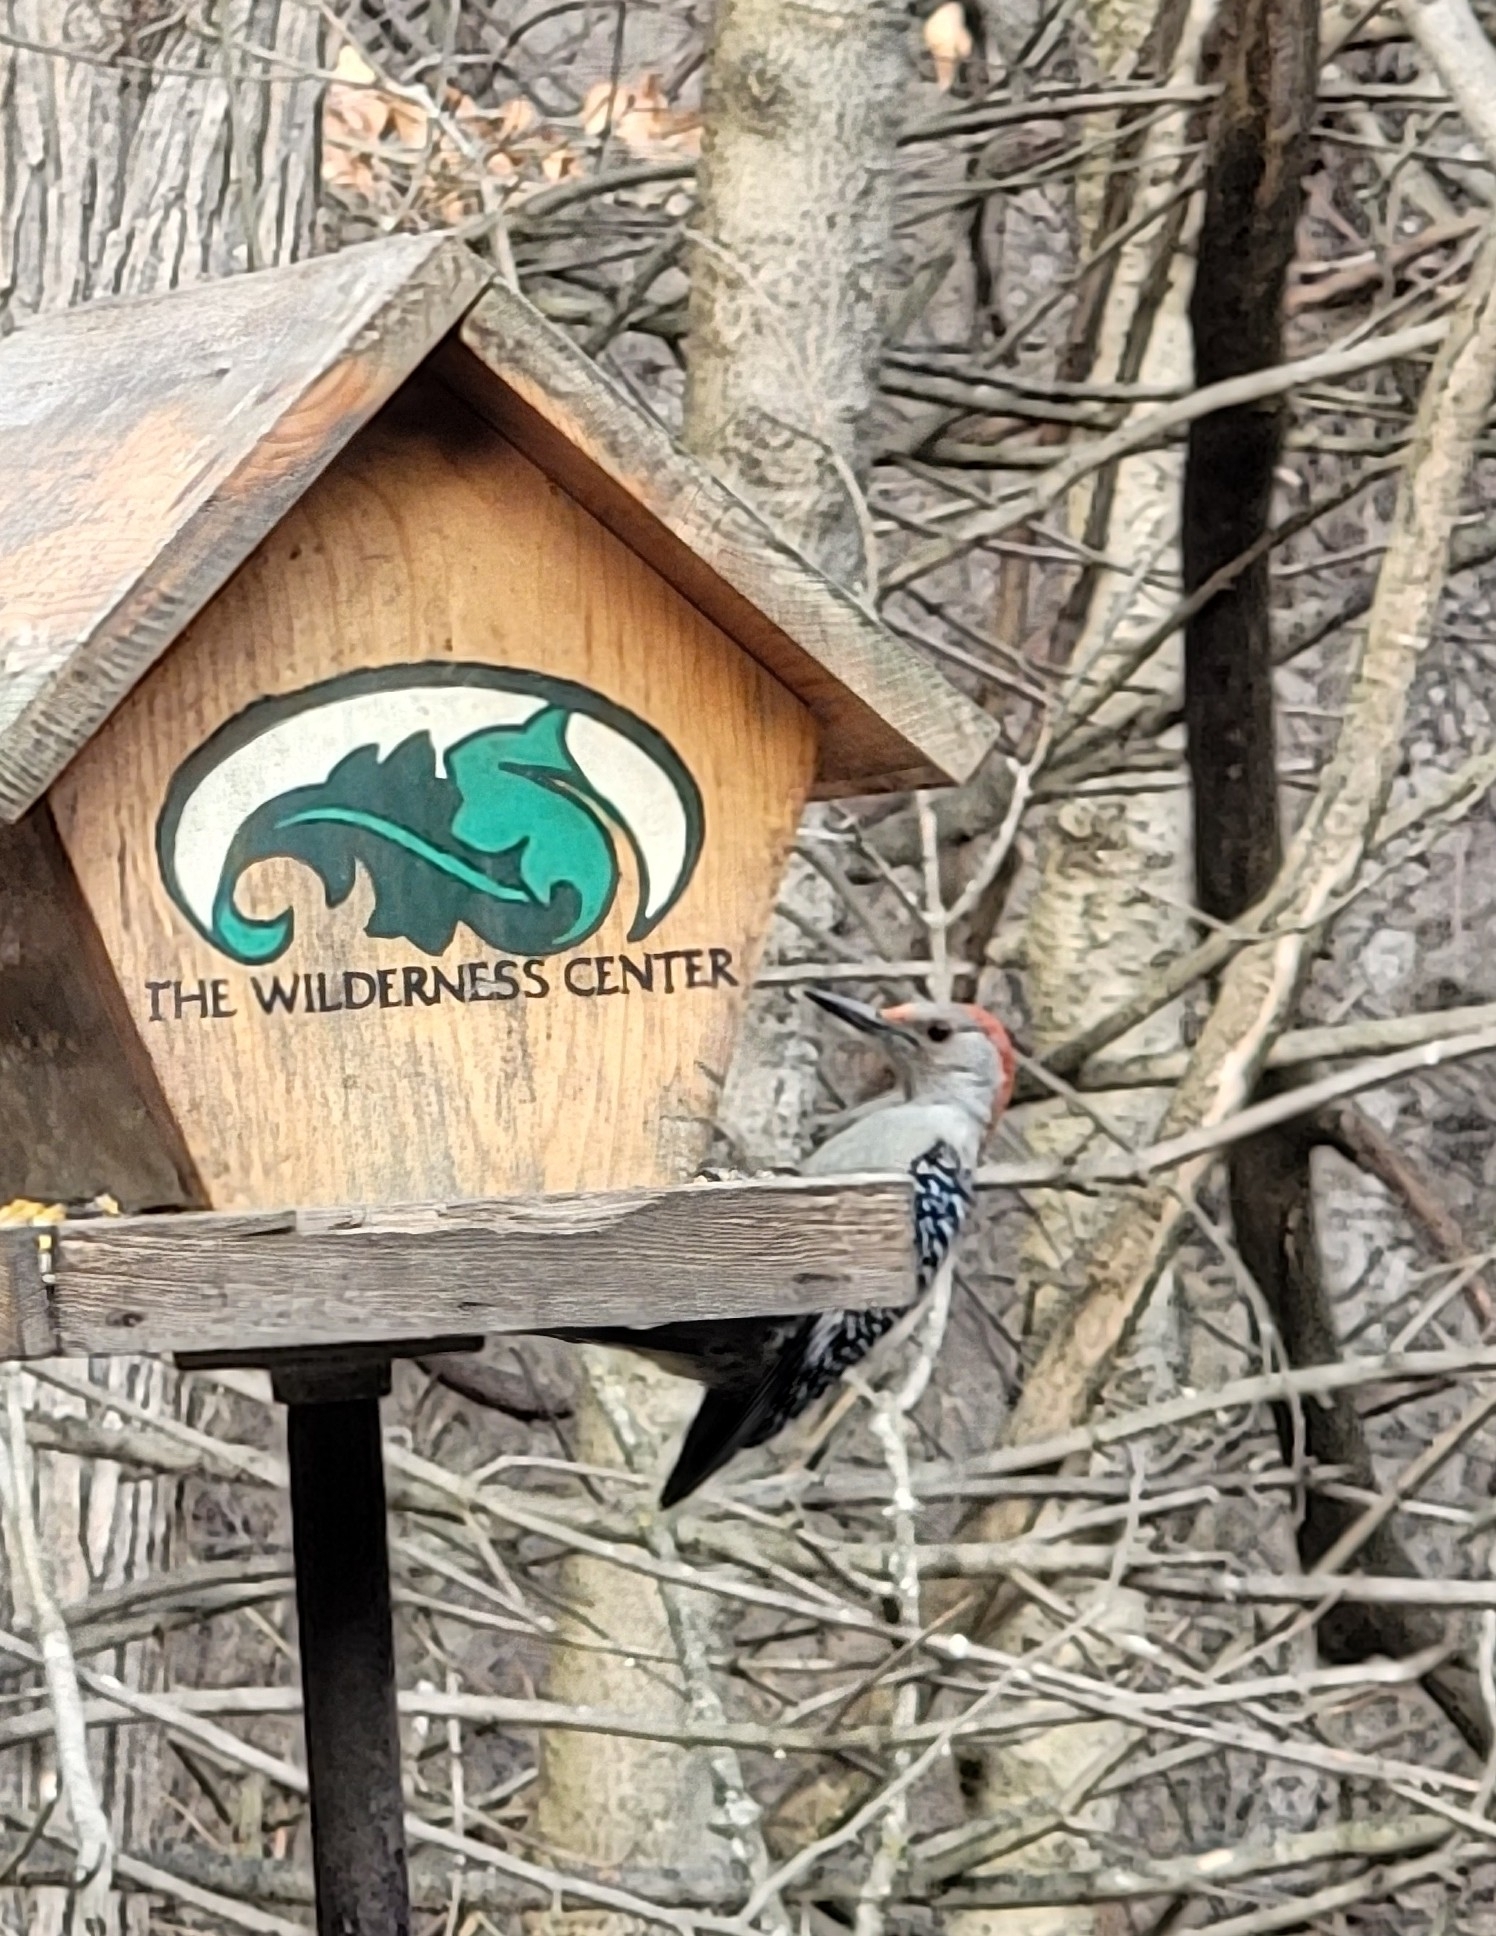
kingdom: Animalia
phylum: Chordata
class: Aves
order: Piciformes
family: Picidae
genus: Melanerpes
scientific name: Melanerpes carolinus
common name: Red-bellied woodpecker
